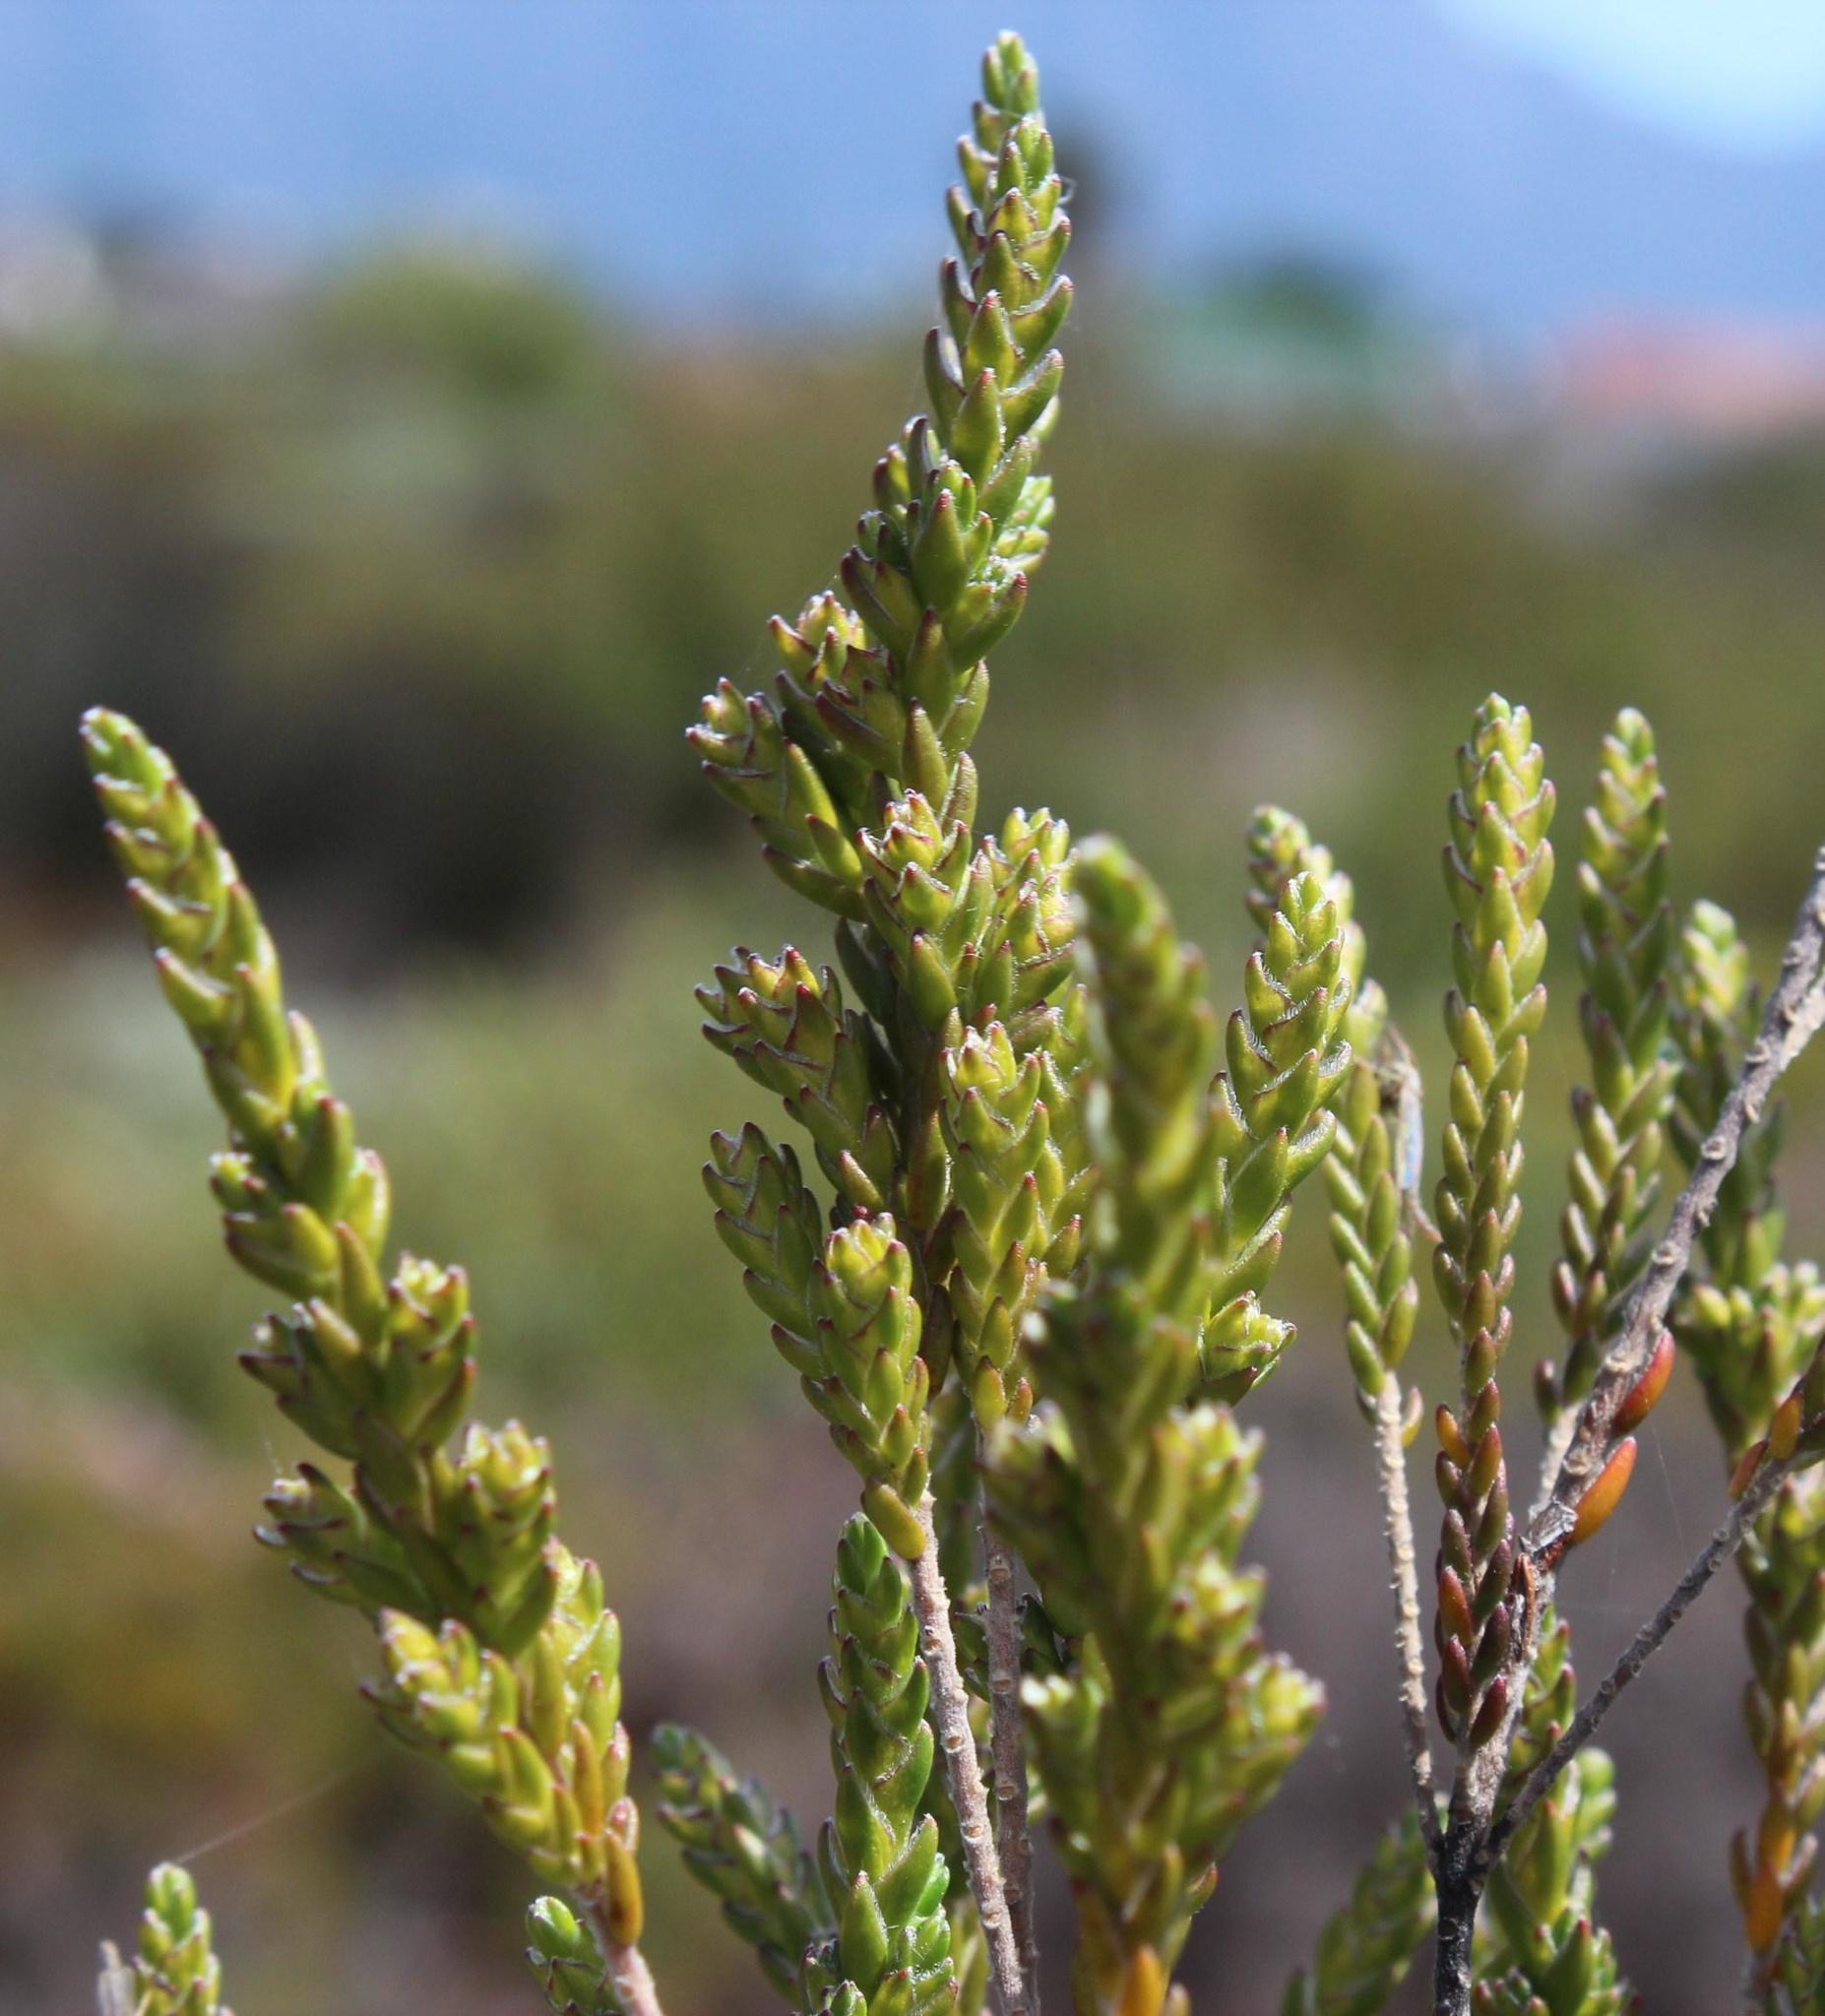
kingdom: Plantae
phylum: Tracheophyta
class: Magnoliopsida
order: Malvales
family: Thymelaeaceae
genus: Passerina
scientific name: Passerina paludosa
